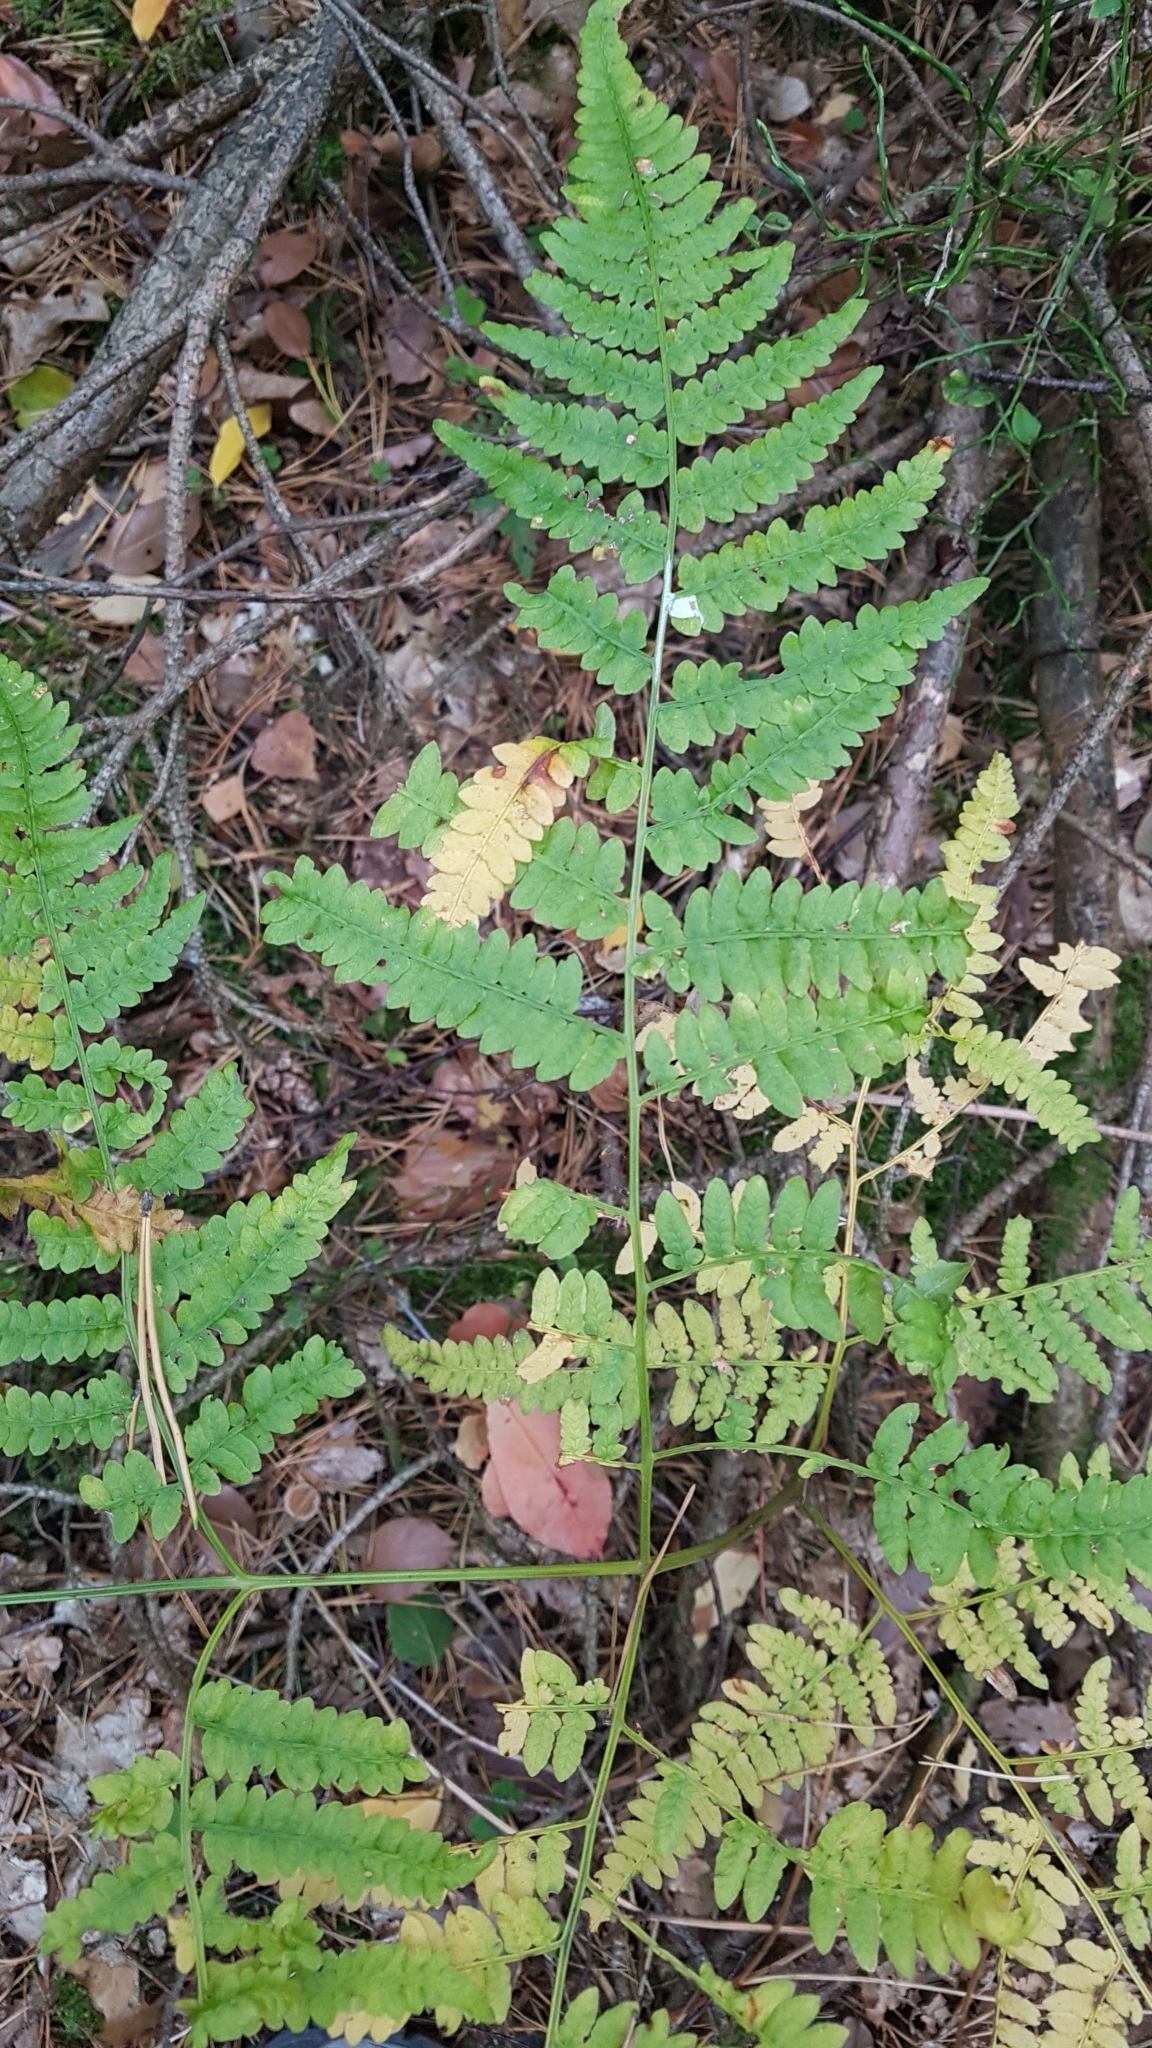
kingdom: Plantae
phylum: Tracheophyta
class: Polypodiopsida
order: Polypodiales
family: Dennstaedtiaceae
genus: Pteridium
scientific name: Pteridium aquilinum
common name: Bracken
